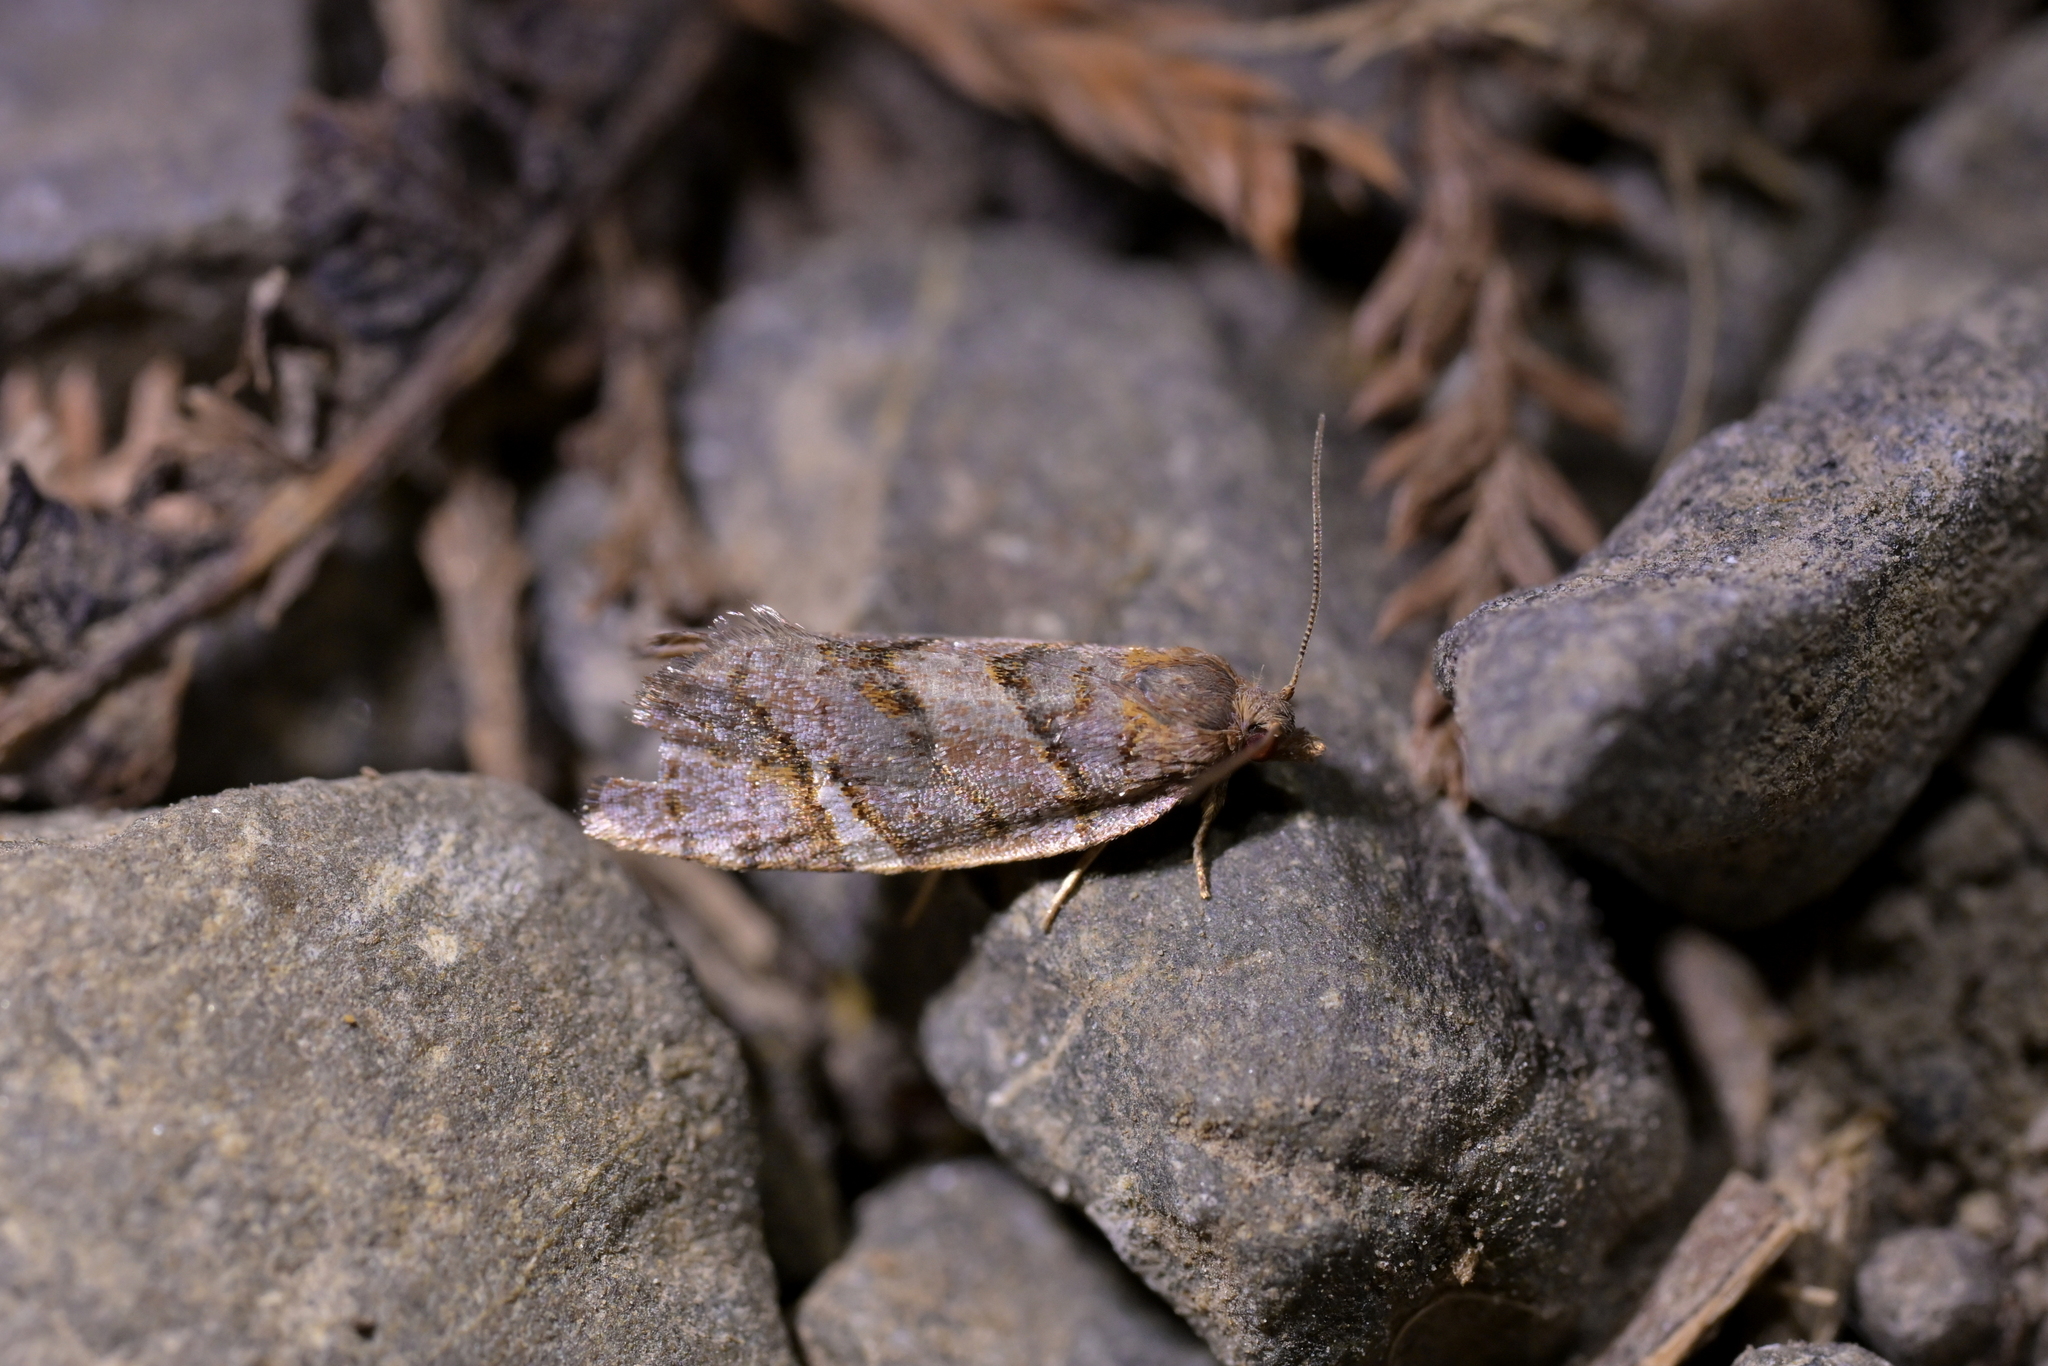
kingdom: Animalia
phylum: Arthropoda
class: Insecta
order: Lepidoptera
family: Tortricidae
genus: Ecclitica
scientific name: Ecclitica torogramma
